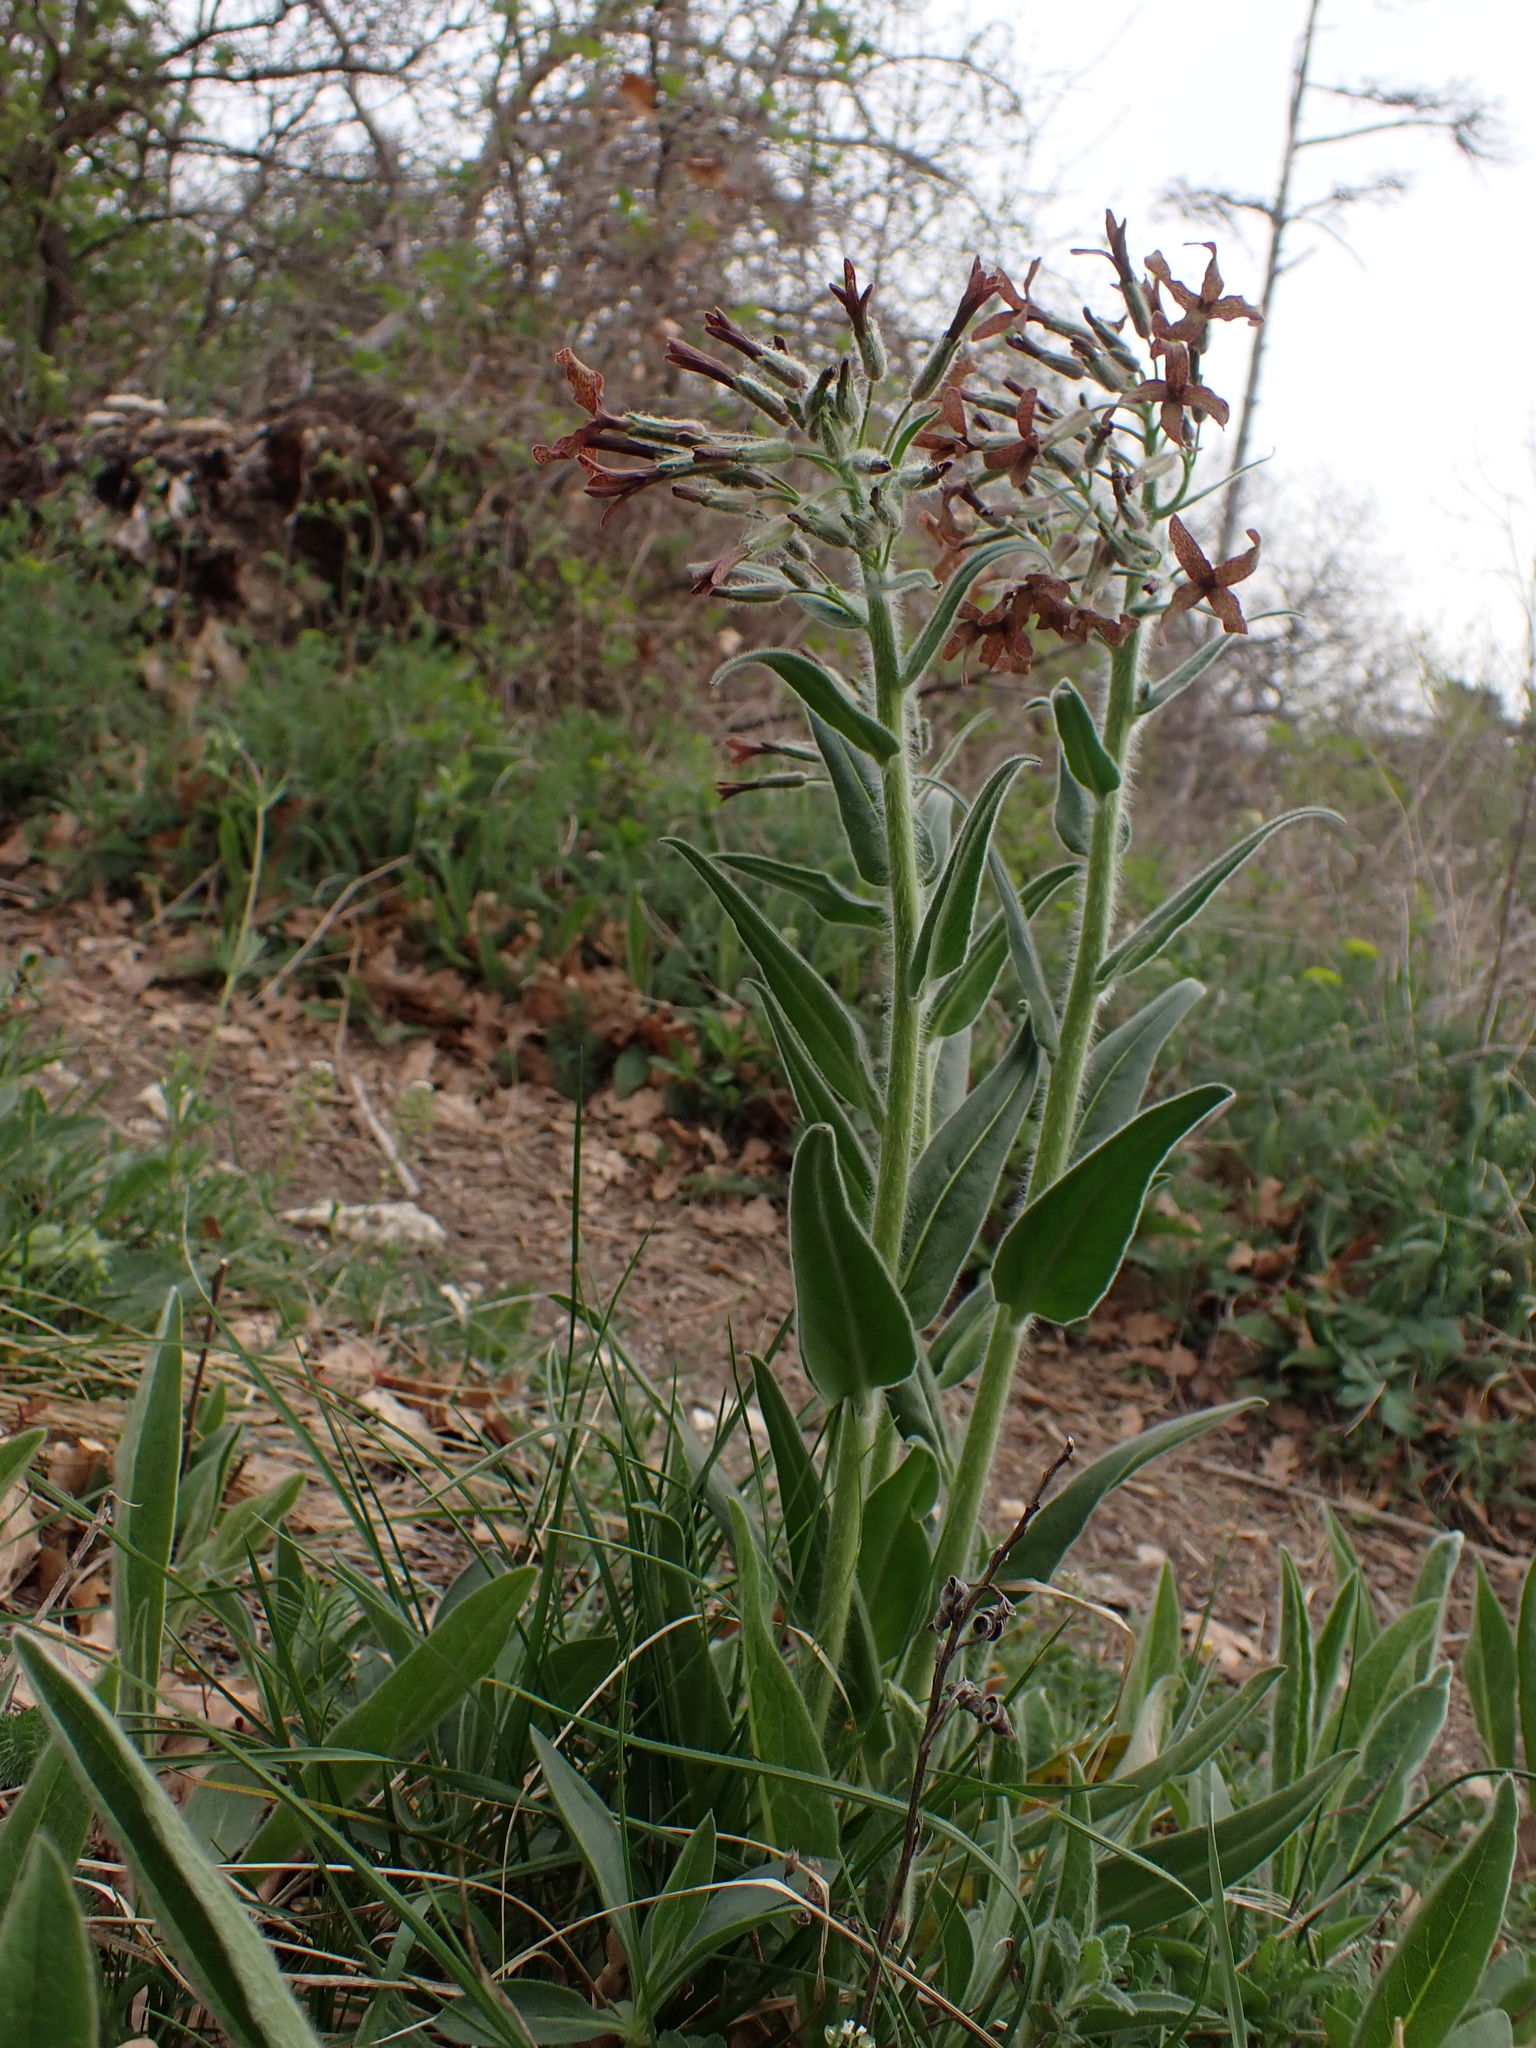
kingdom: Plantae
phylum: Tracheophyta
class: Magnoliopsida
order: Brassicales
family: Brassicaceae
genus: Hesperis
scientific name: Hesperis tristis
